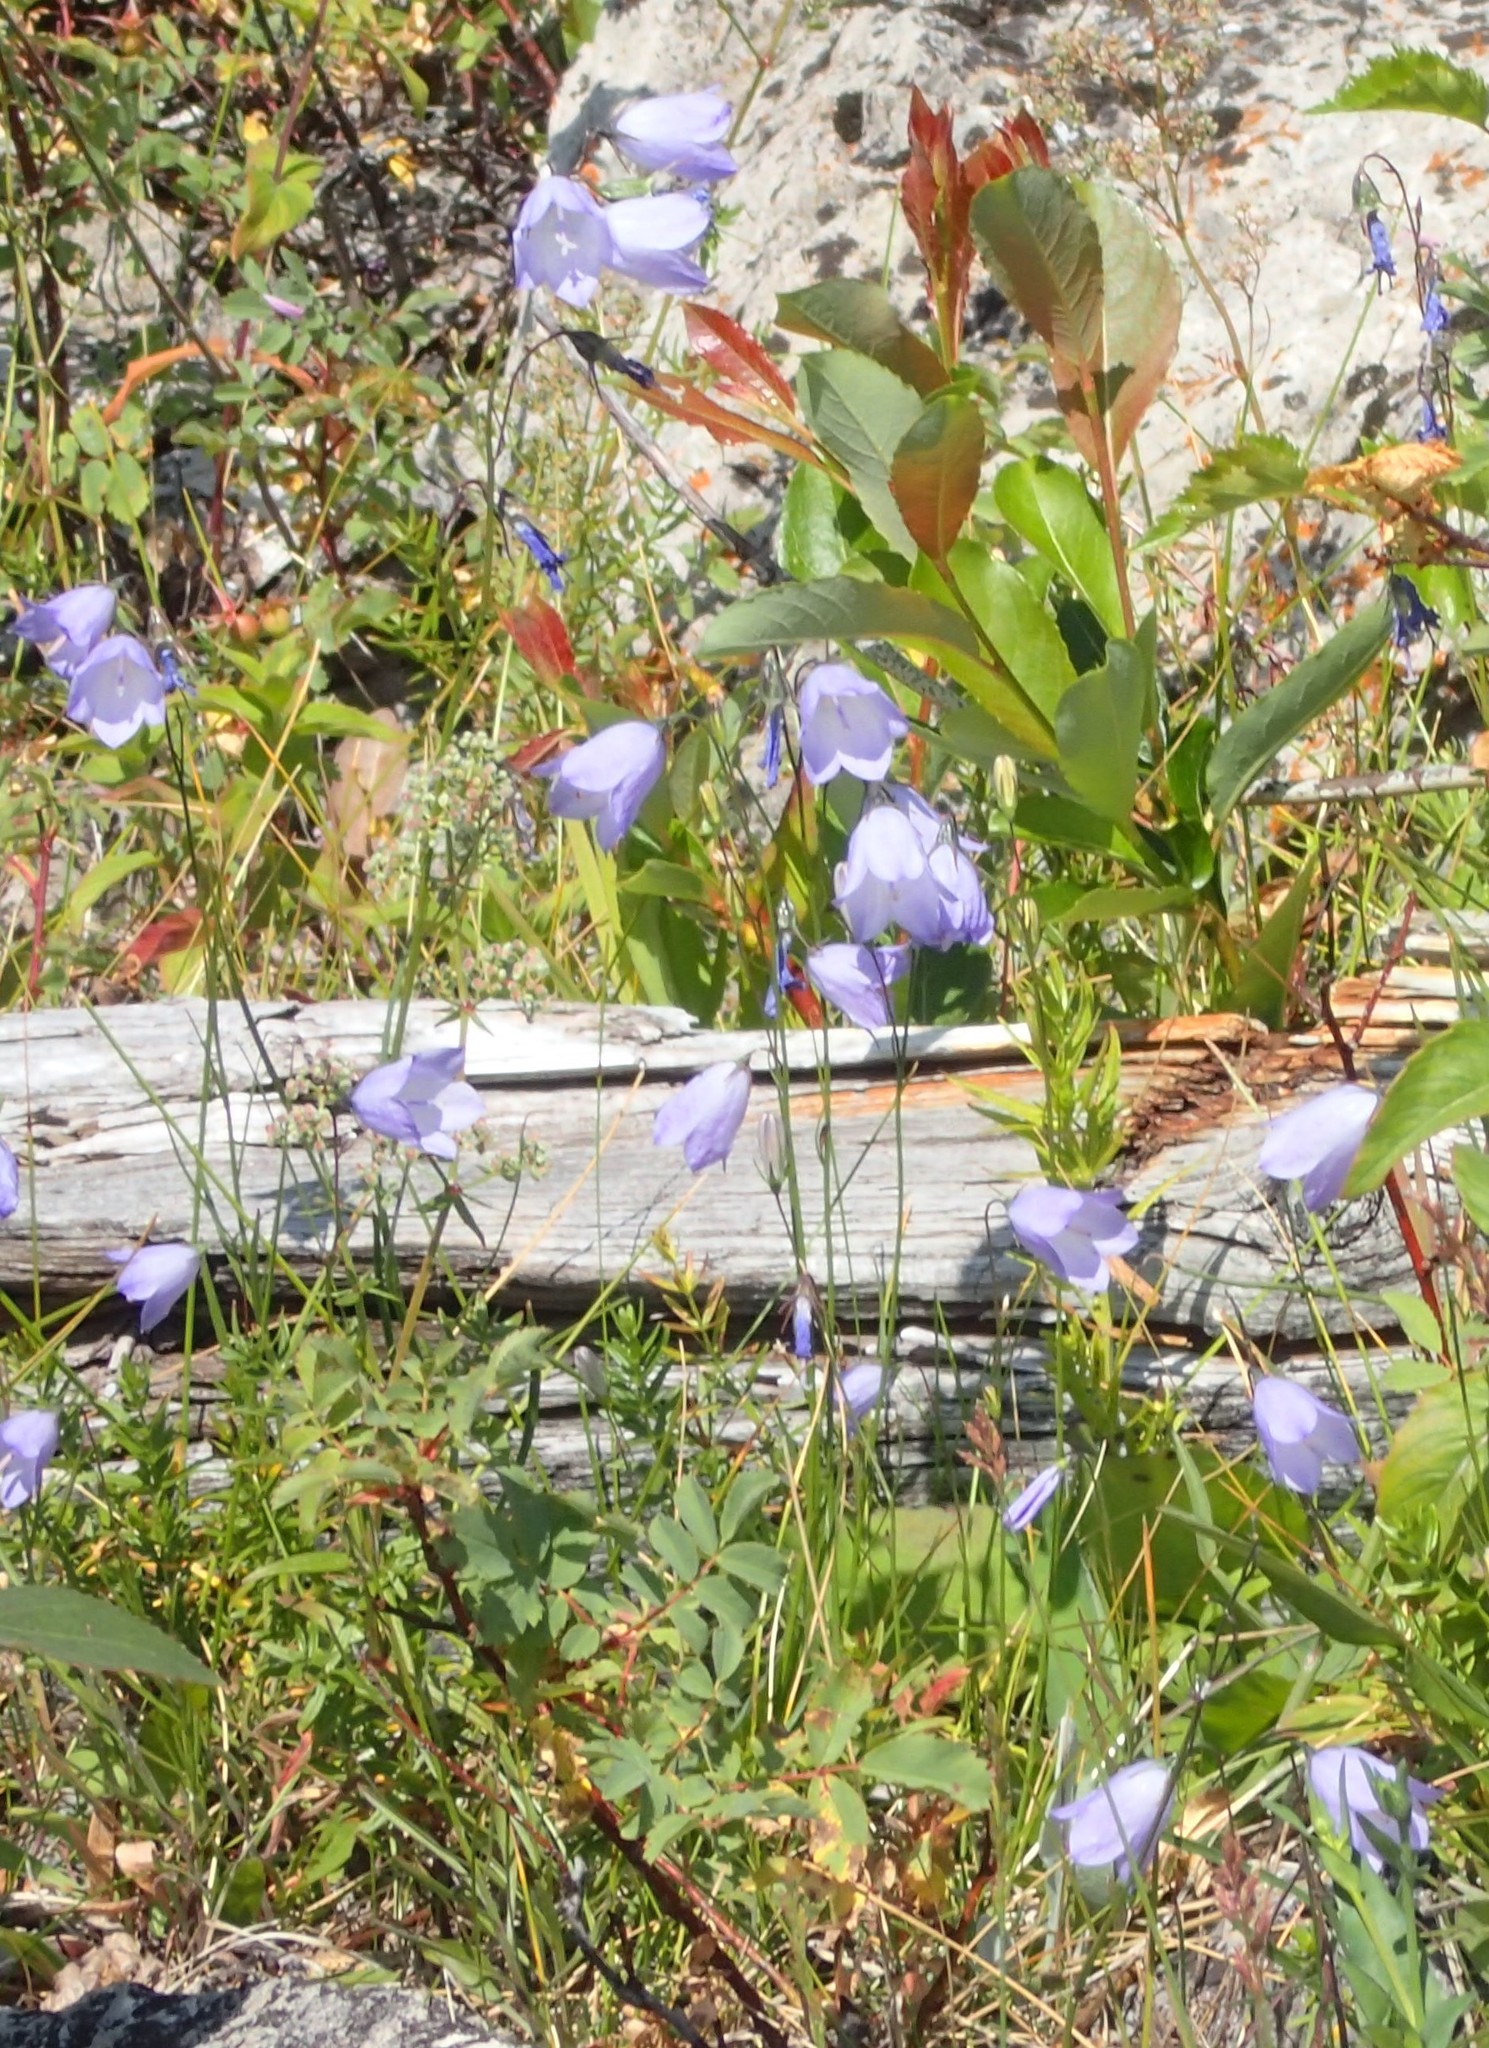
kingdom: Plantae
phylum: Tracheophyta
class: Magnoliopsida
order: Asterales
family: Campanulaceae
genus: Campanula
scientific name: Campanula alaskana
